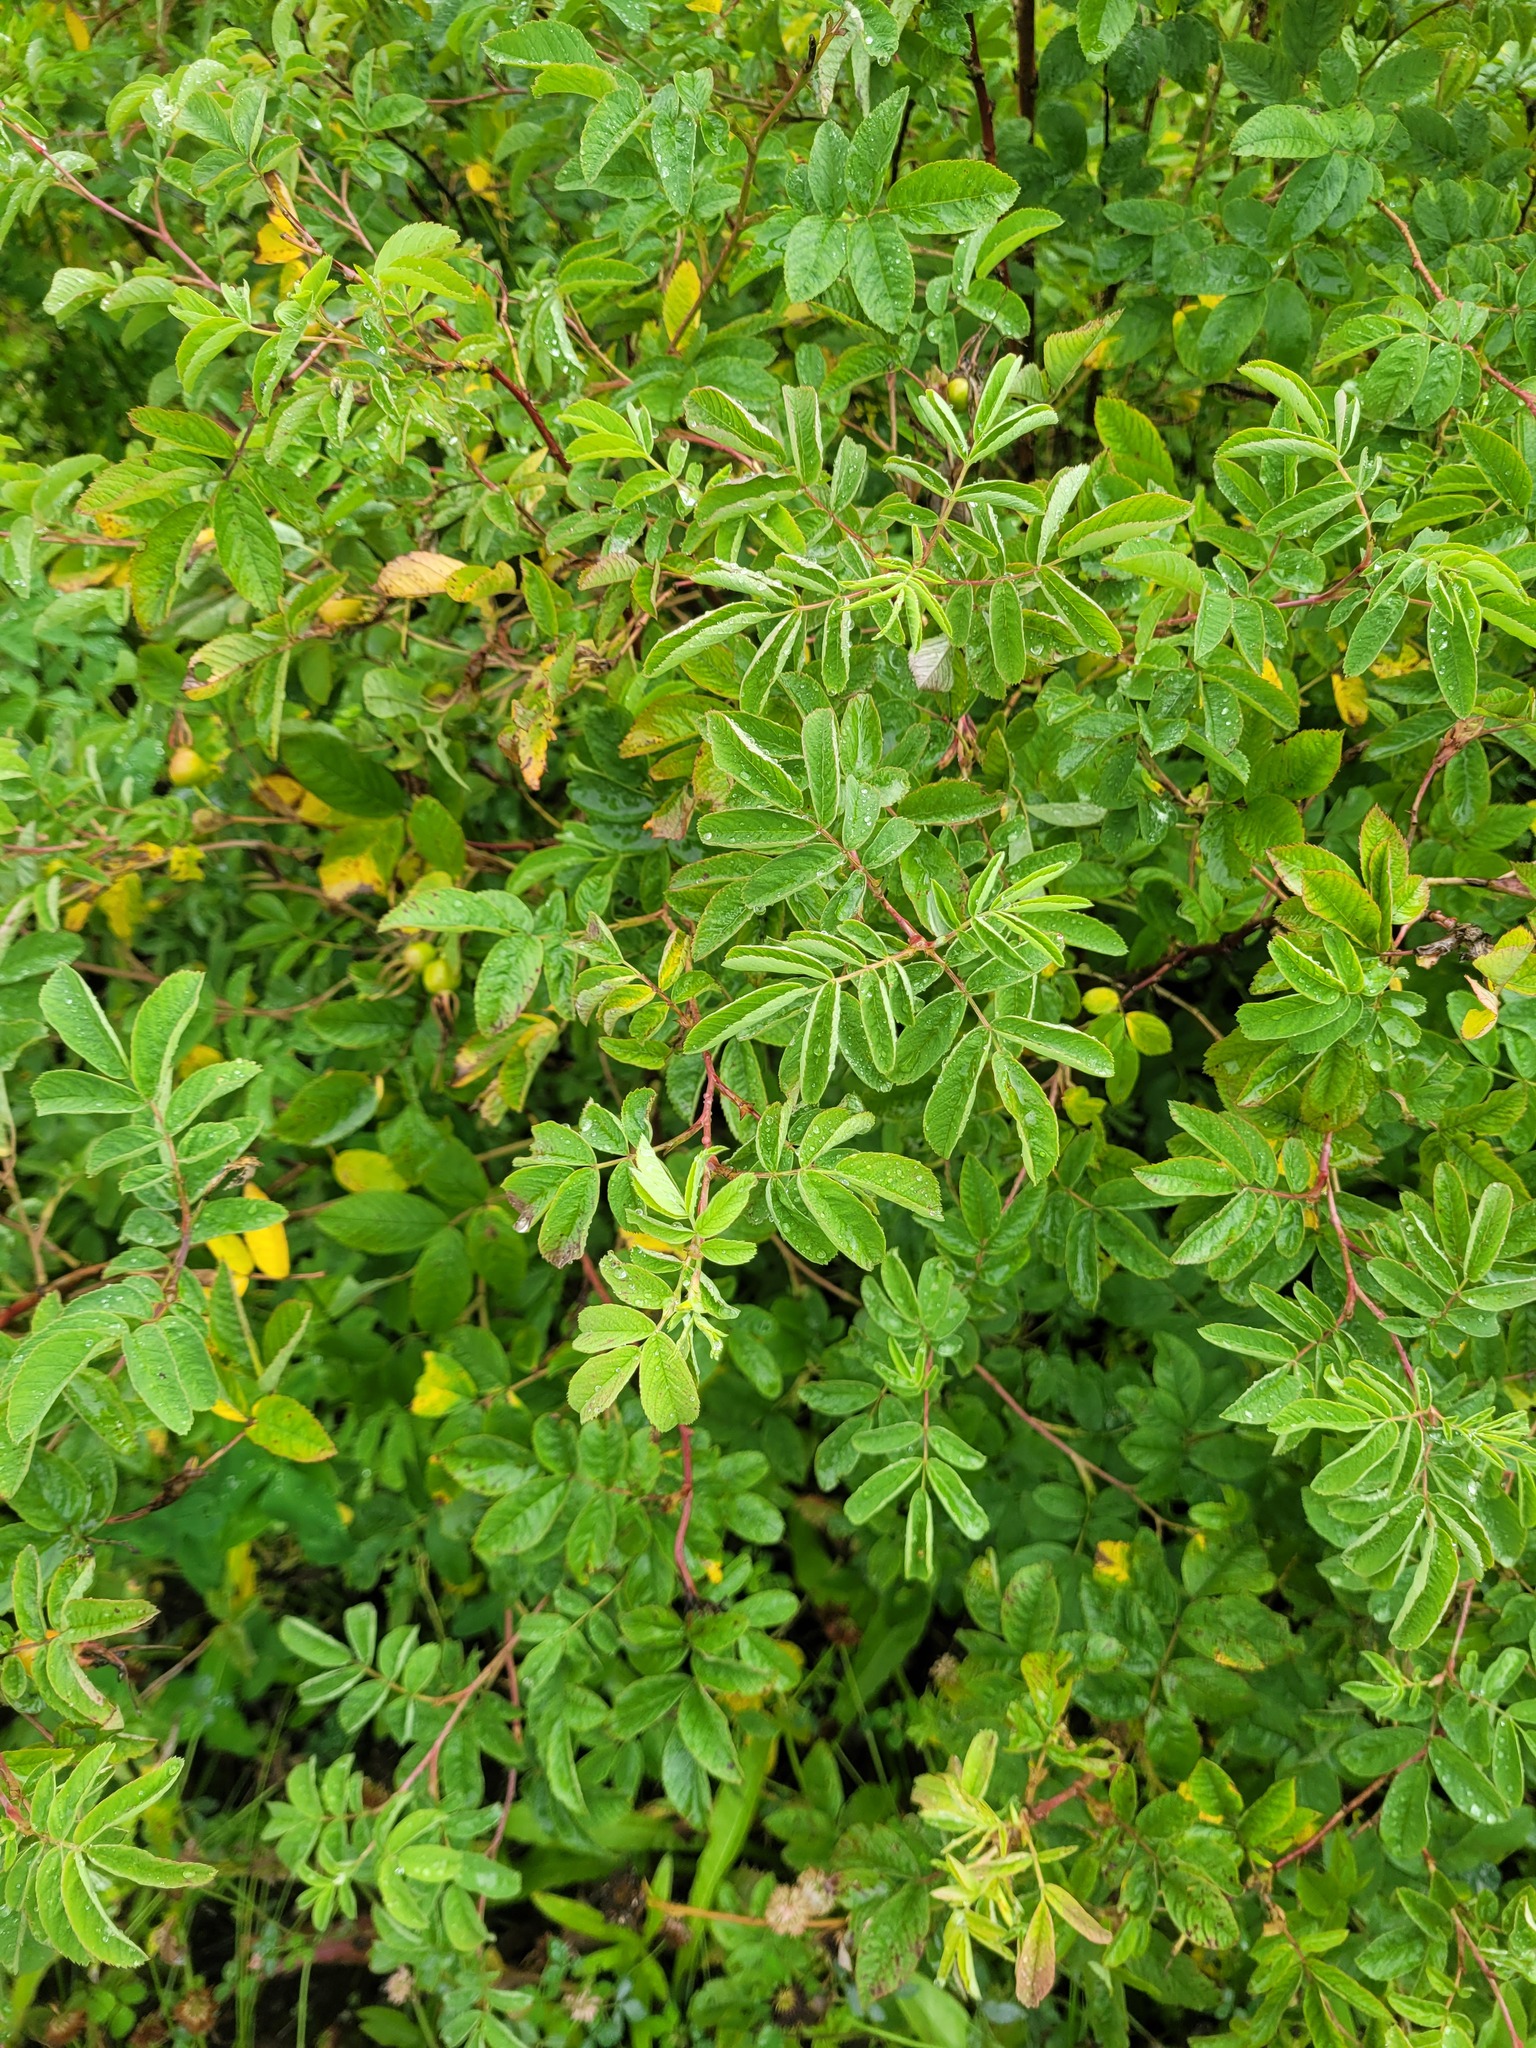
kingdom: Plantae
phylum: Tracheophyta
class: Magnoliopsida
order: Rosales
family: Rosaceae
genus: Rosa
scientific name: Rosa majalis
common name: Cinnamon rose
